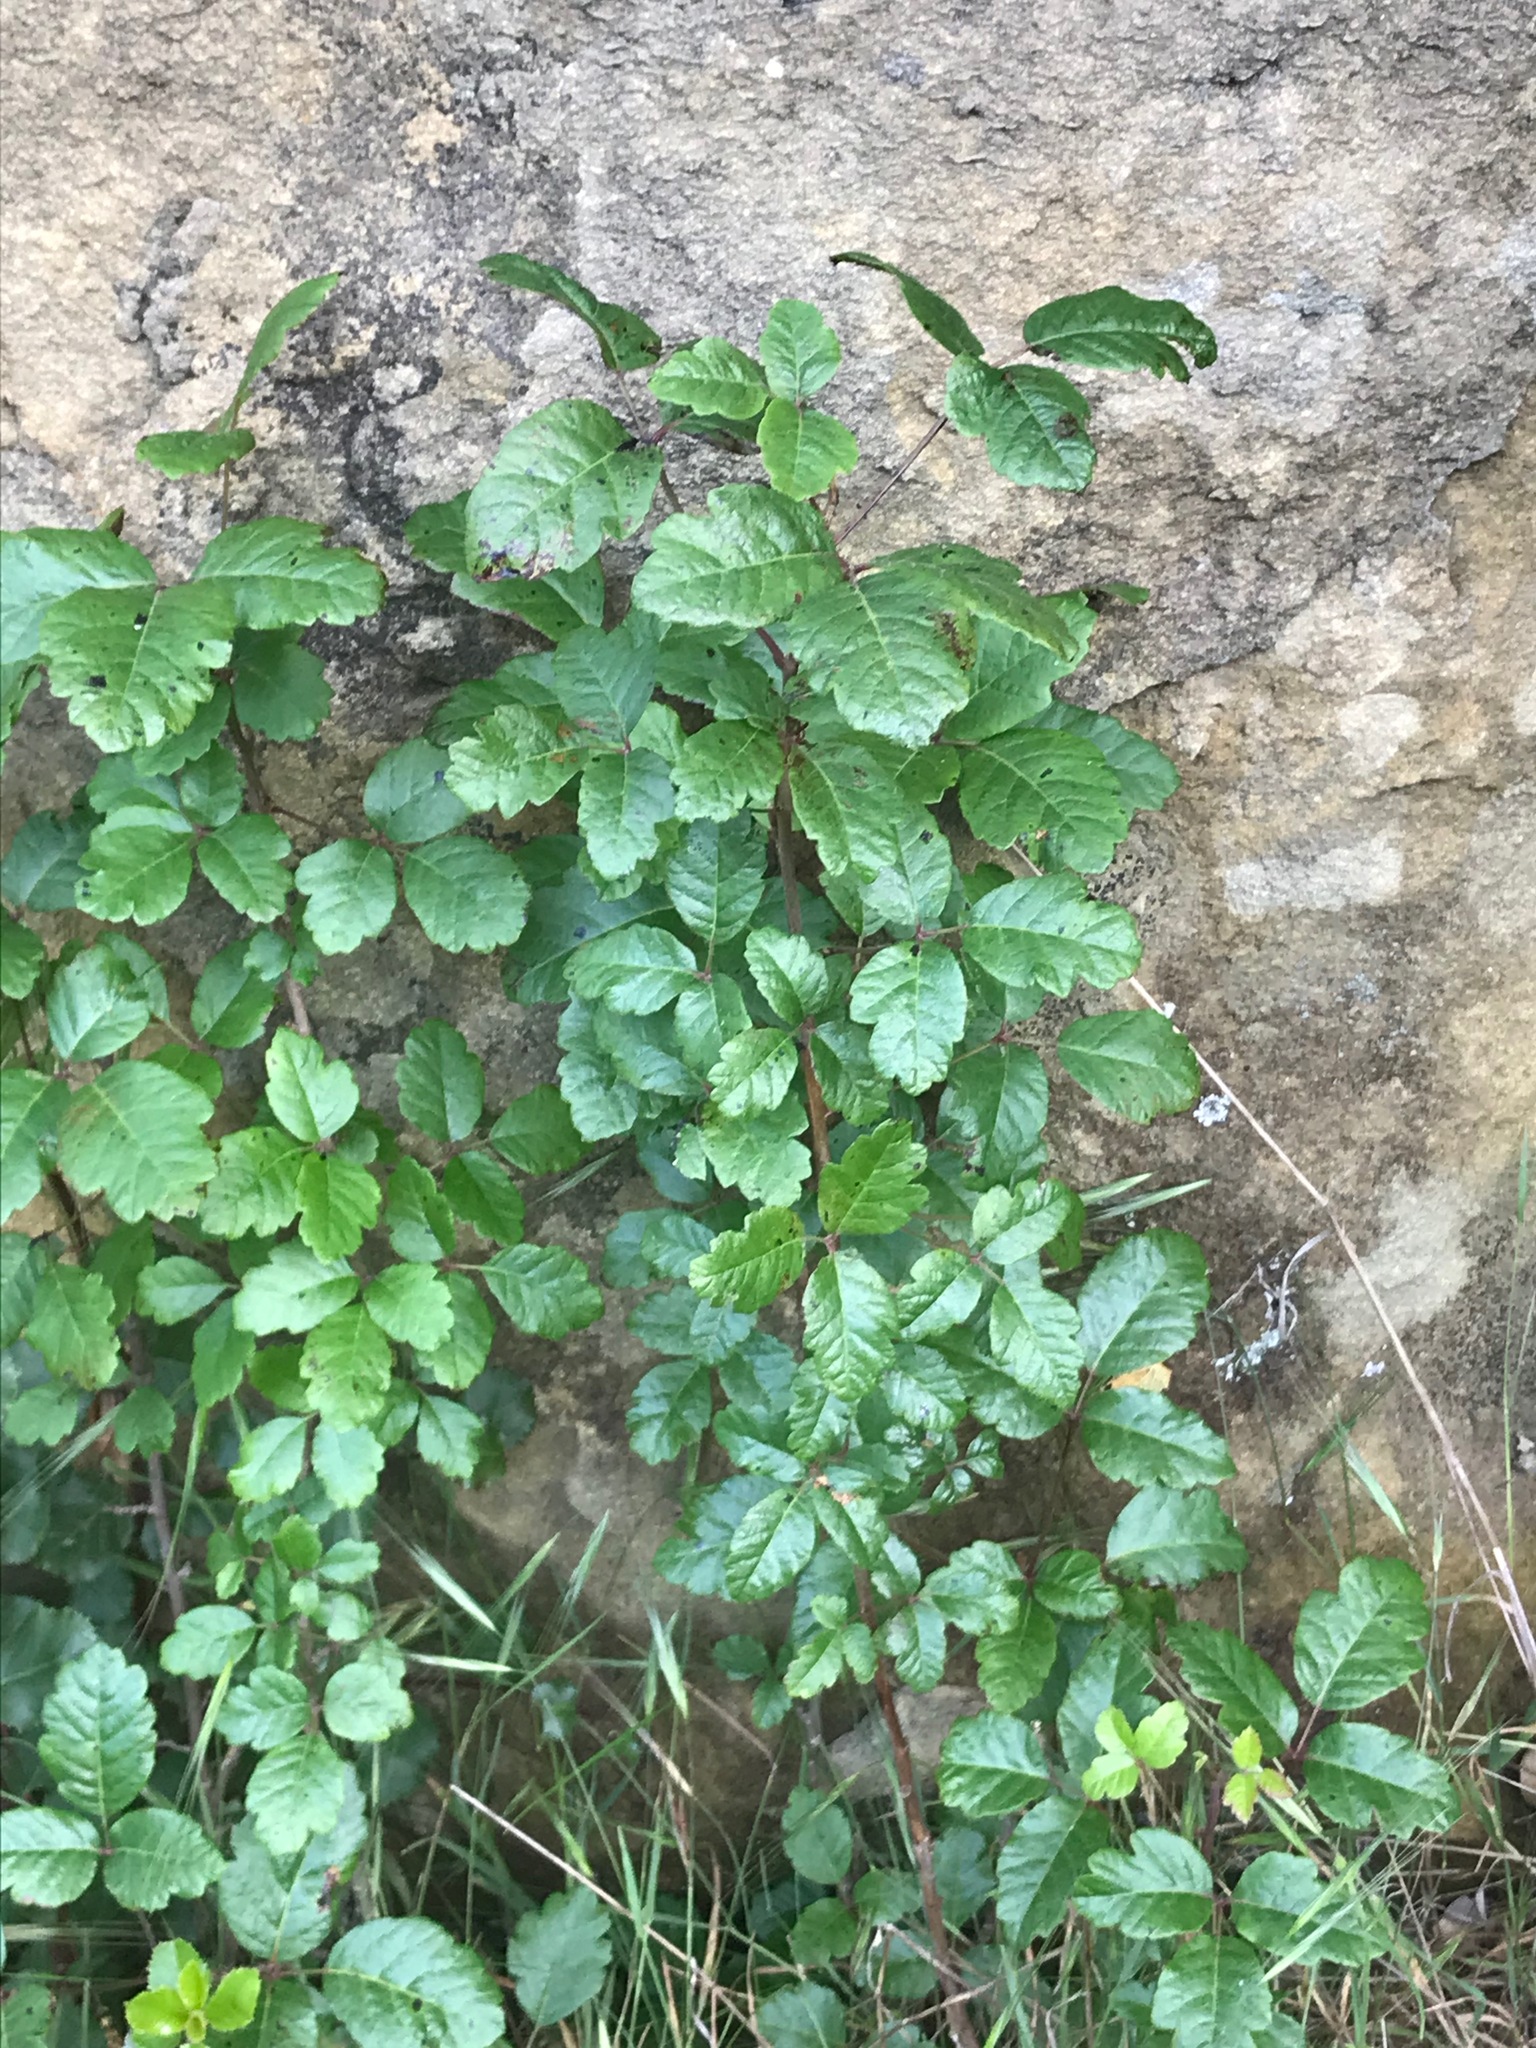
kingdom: Plantae
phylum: Tracheophyta
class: Magnoliopsida
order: Sapindales
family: Anacardiaceae
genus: Toxicodendron
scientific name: Toxicodendron diversilobum
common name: Pacific poison-oak
